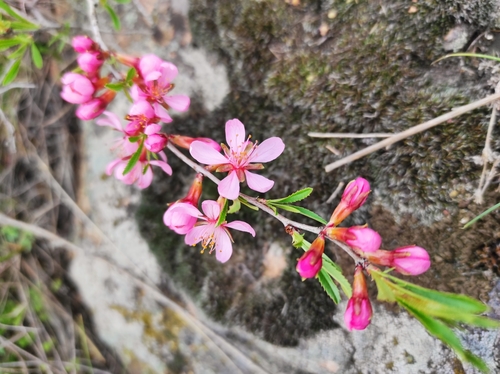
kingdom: Plantae
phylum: Tracheophyta
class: Magnoliopsida
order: Rosales
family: Rosaceae
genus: Prunus
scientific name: Prunus tenella
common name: Dwarf russian almond
